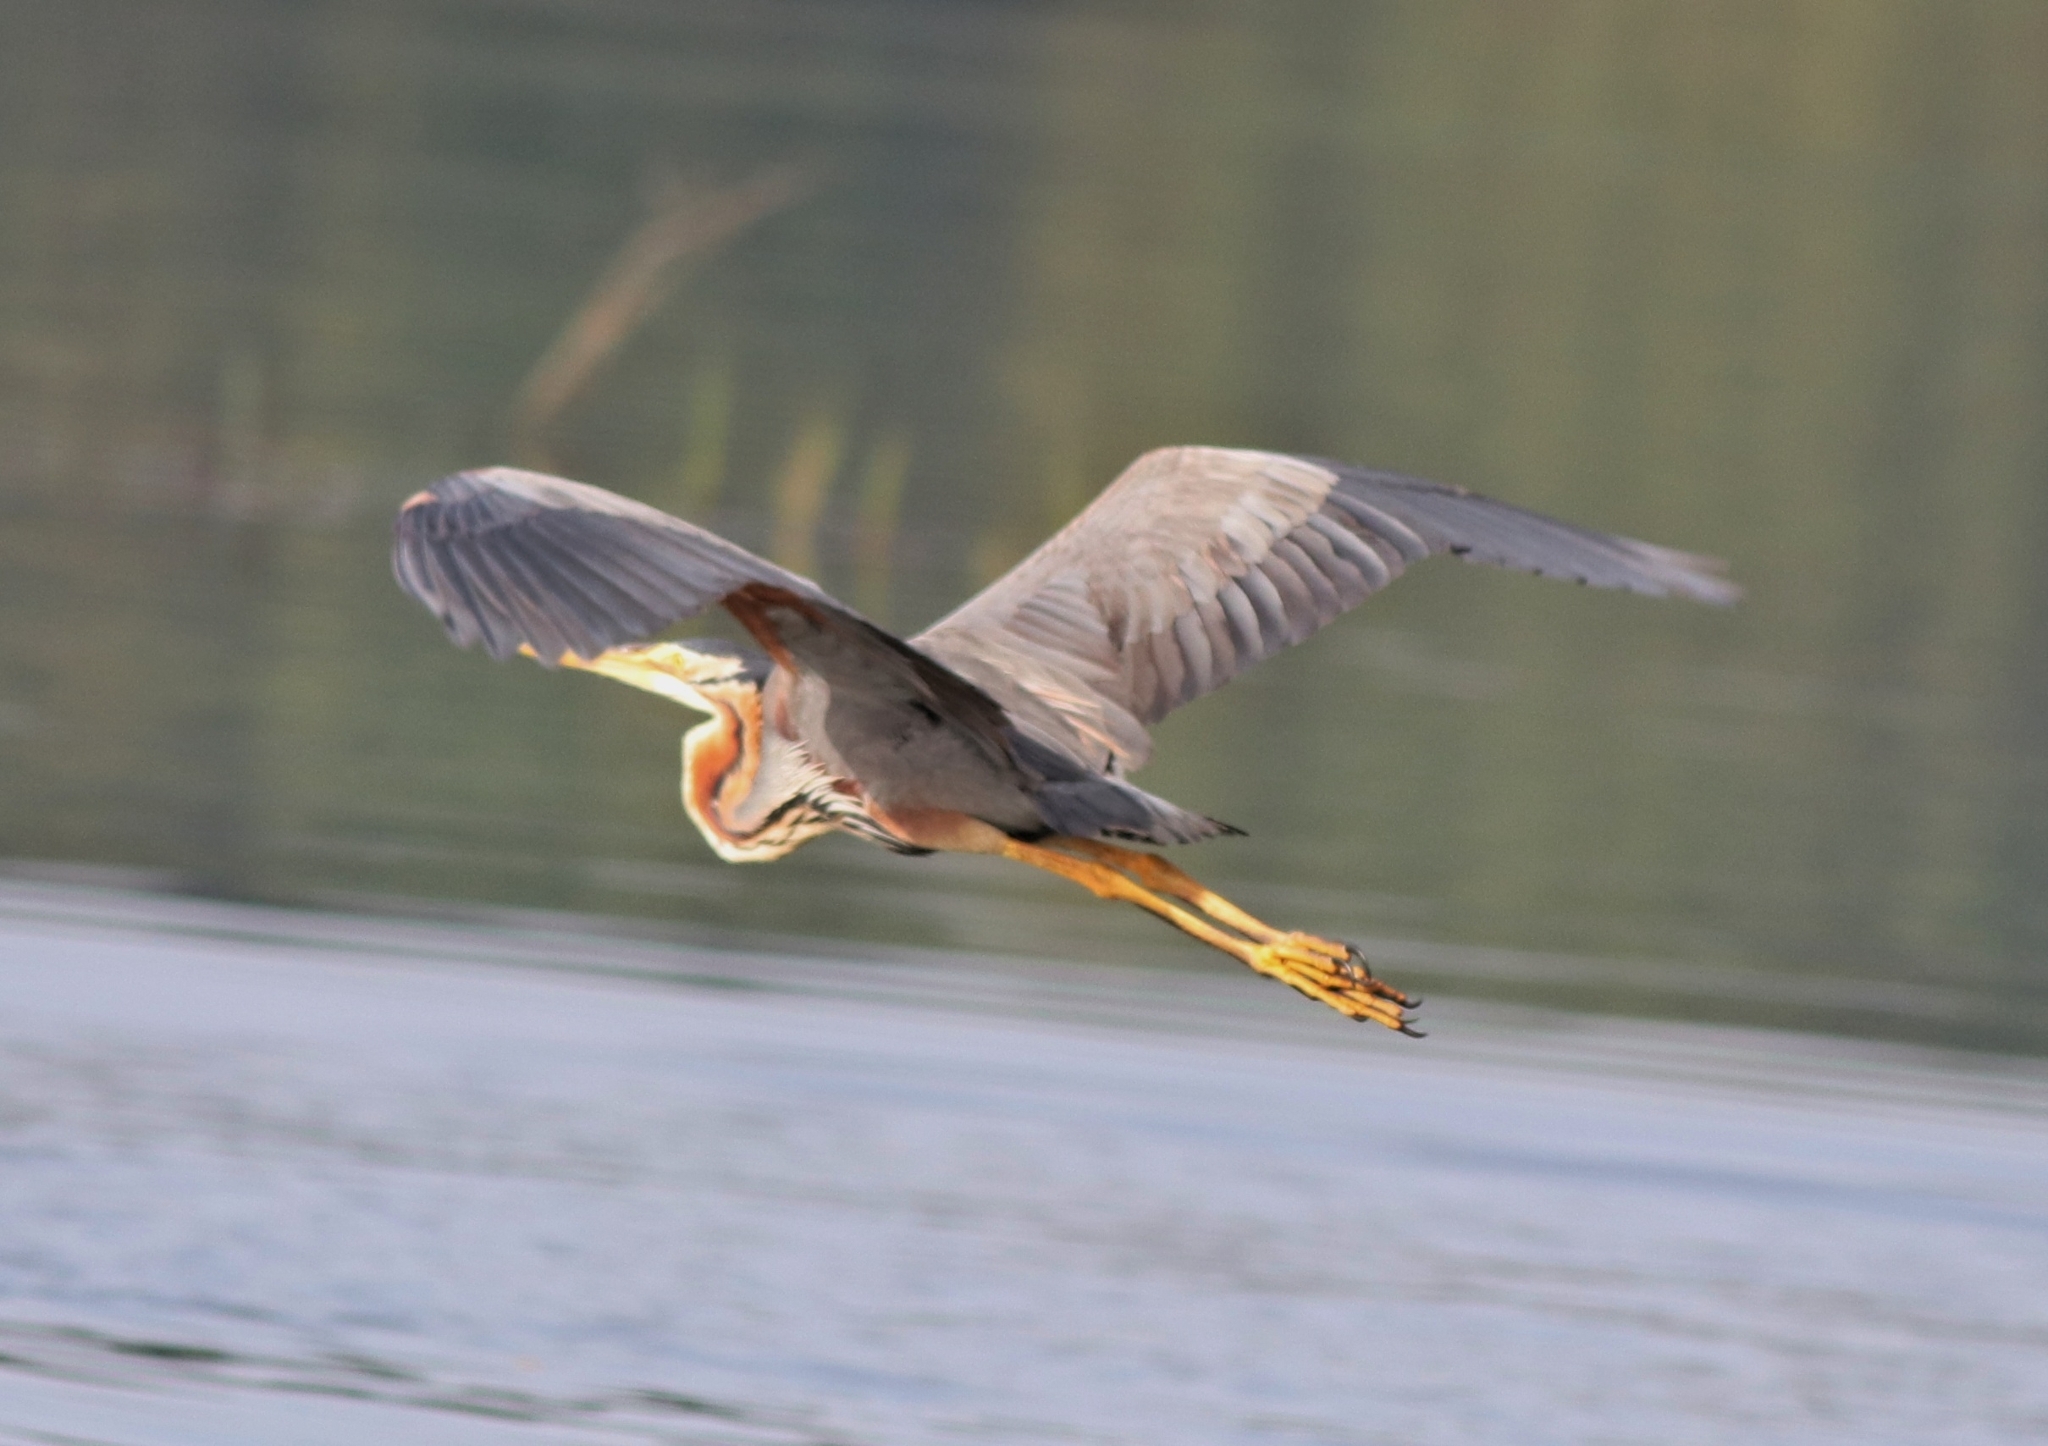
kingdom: Animalia
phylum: Chordata
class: Aves
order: Pelecaniformes
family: Ardeidae
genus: Ardea
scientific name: Ardea purpurea
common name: Purple heron
